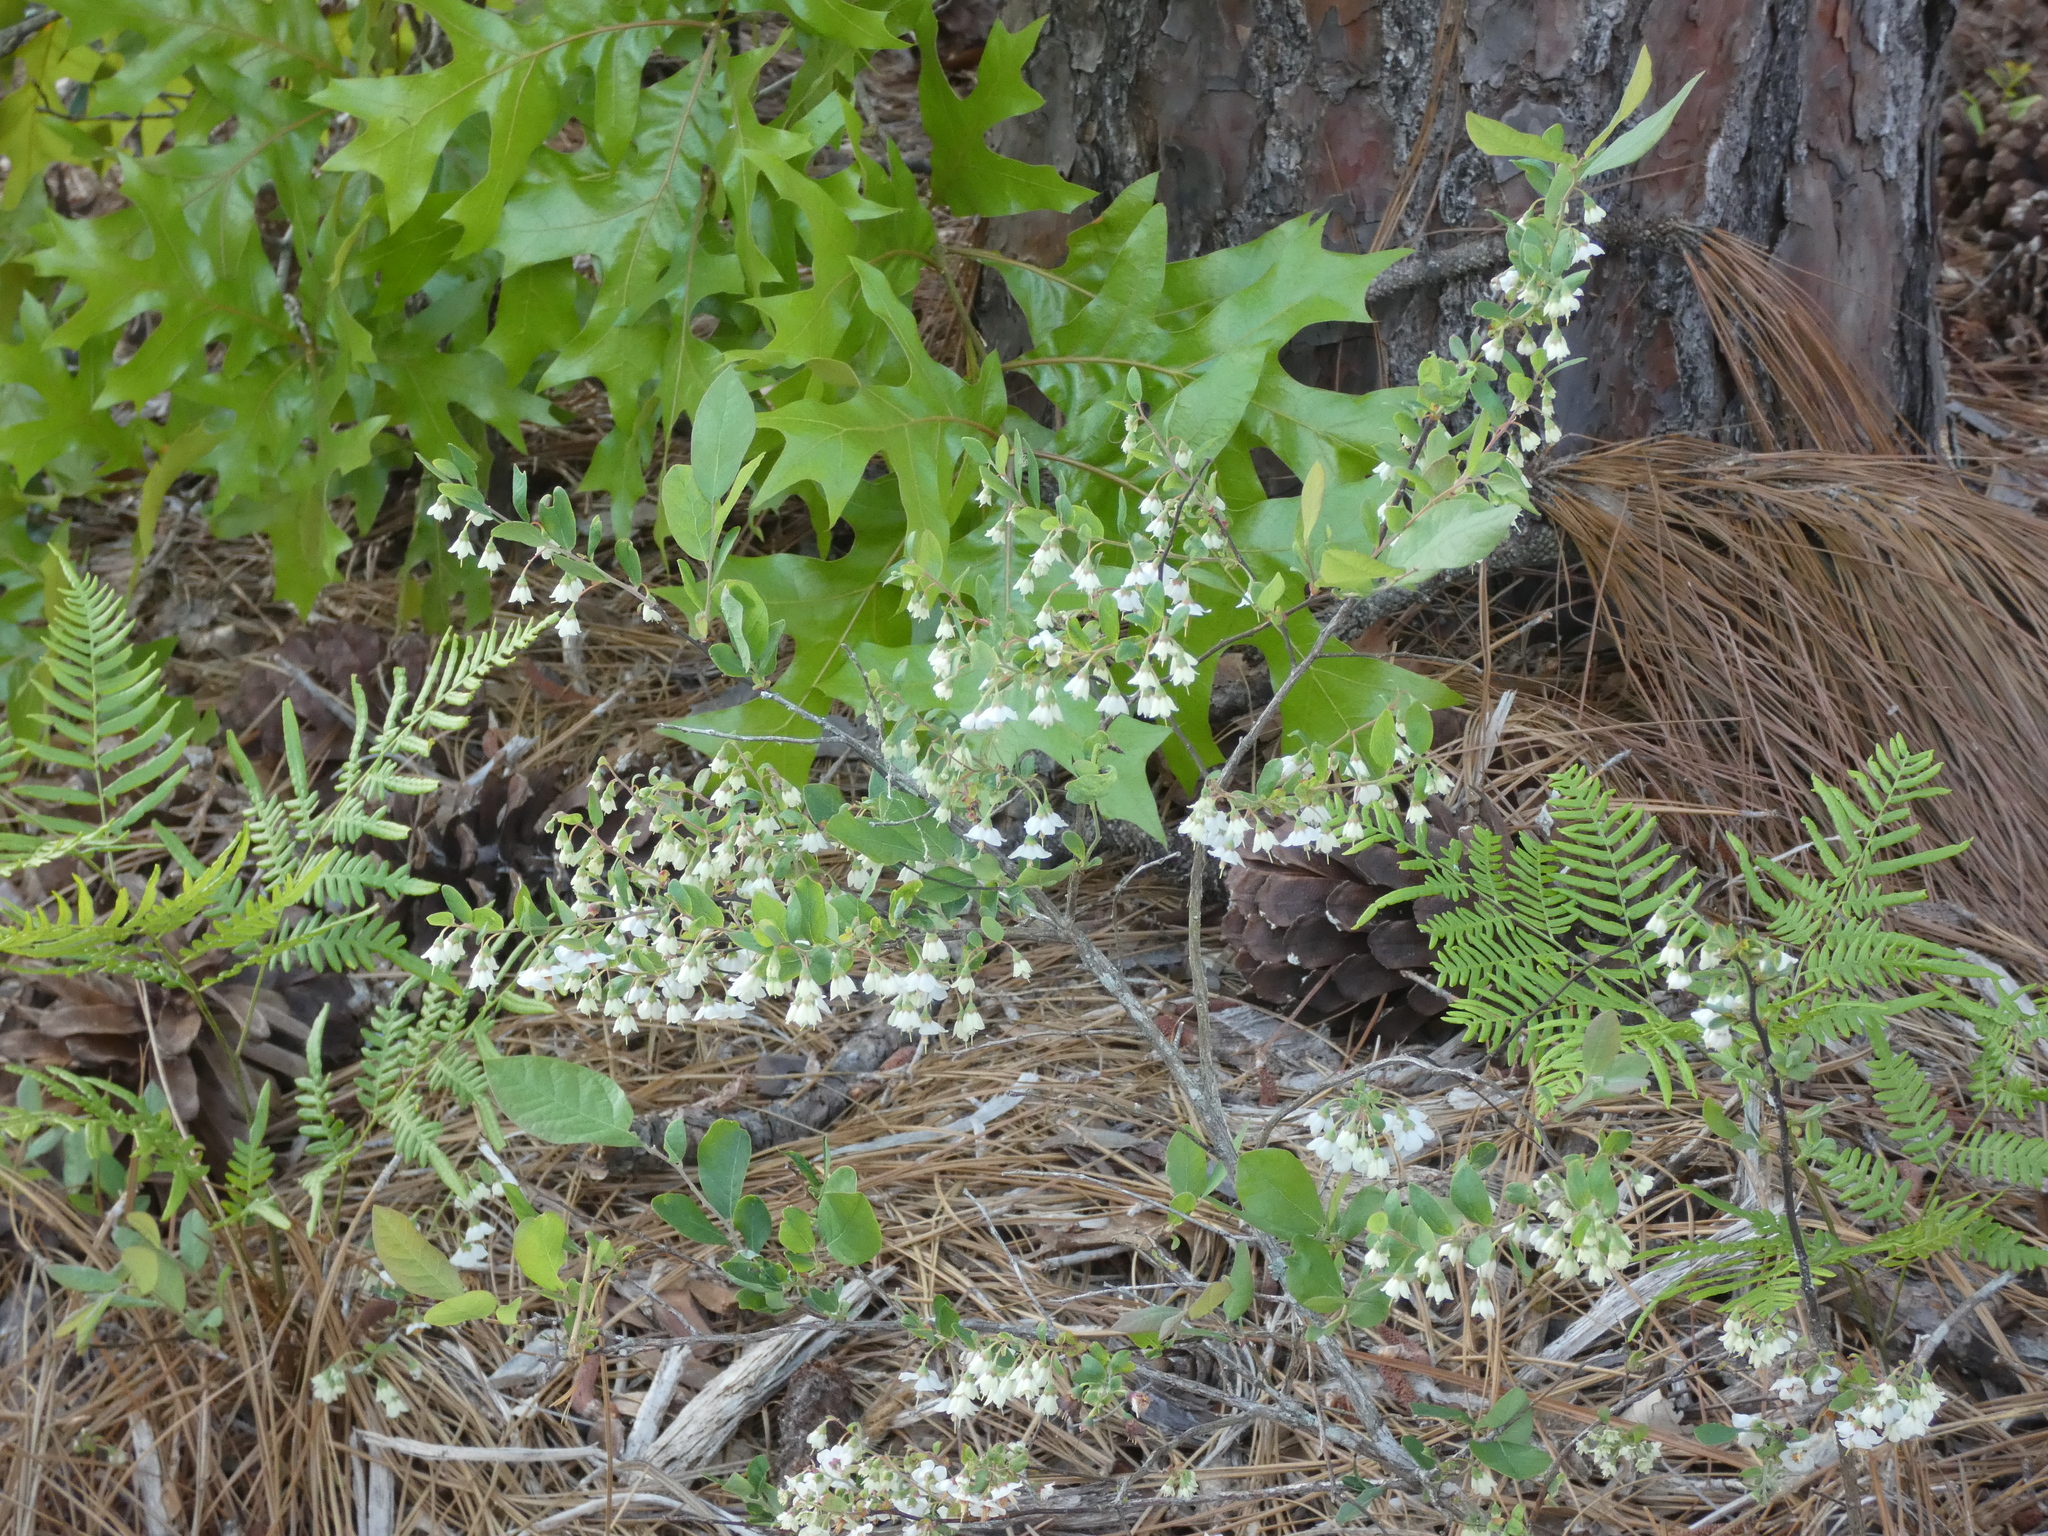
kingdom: Plantae
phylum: Tracheophyta
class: Magnoliopsida
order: Ericales
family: Ericaceae
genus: Vaccinium
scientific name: Vaccinium stamineum
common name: Deerberry
